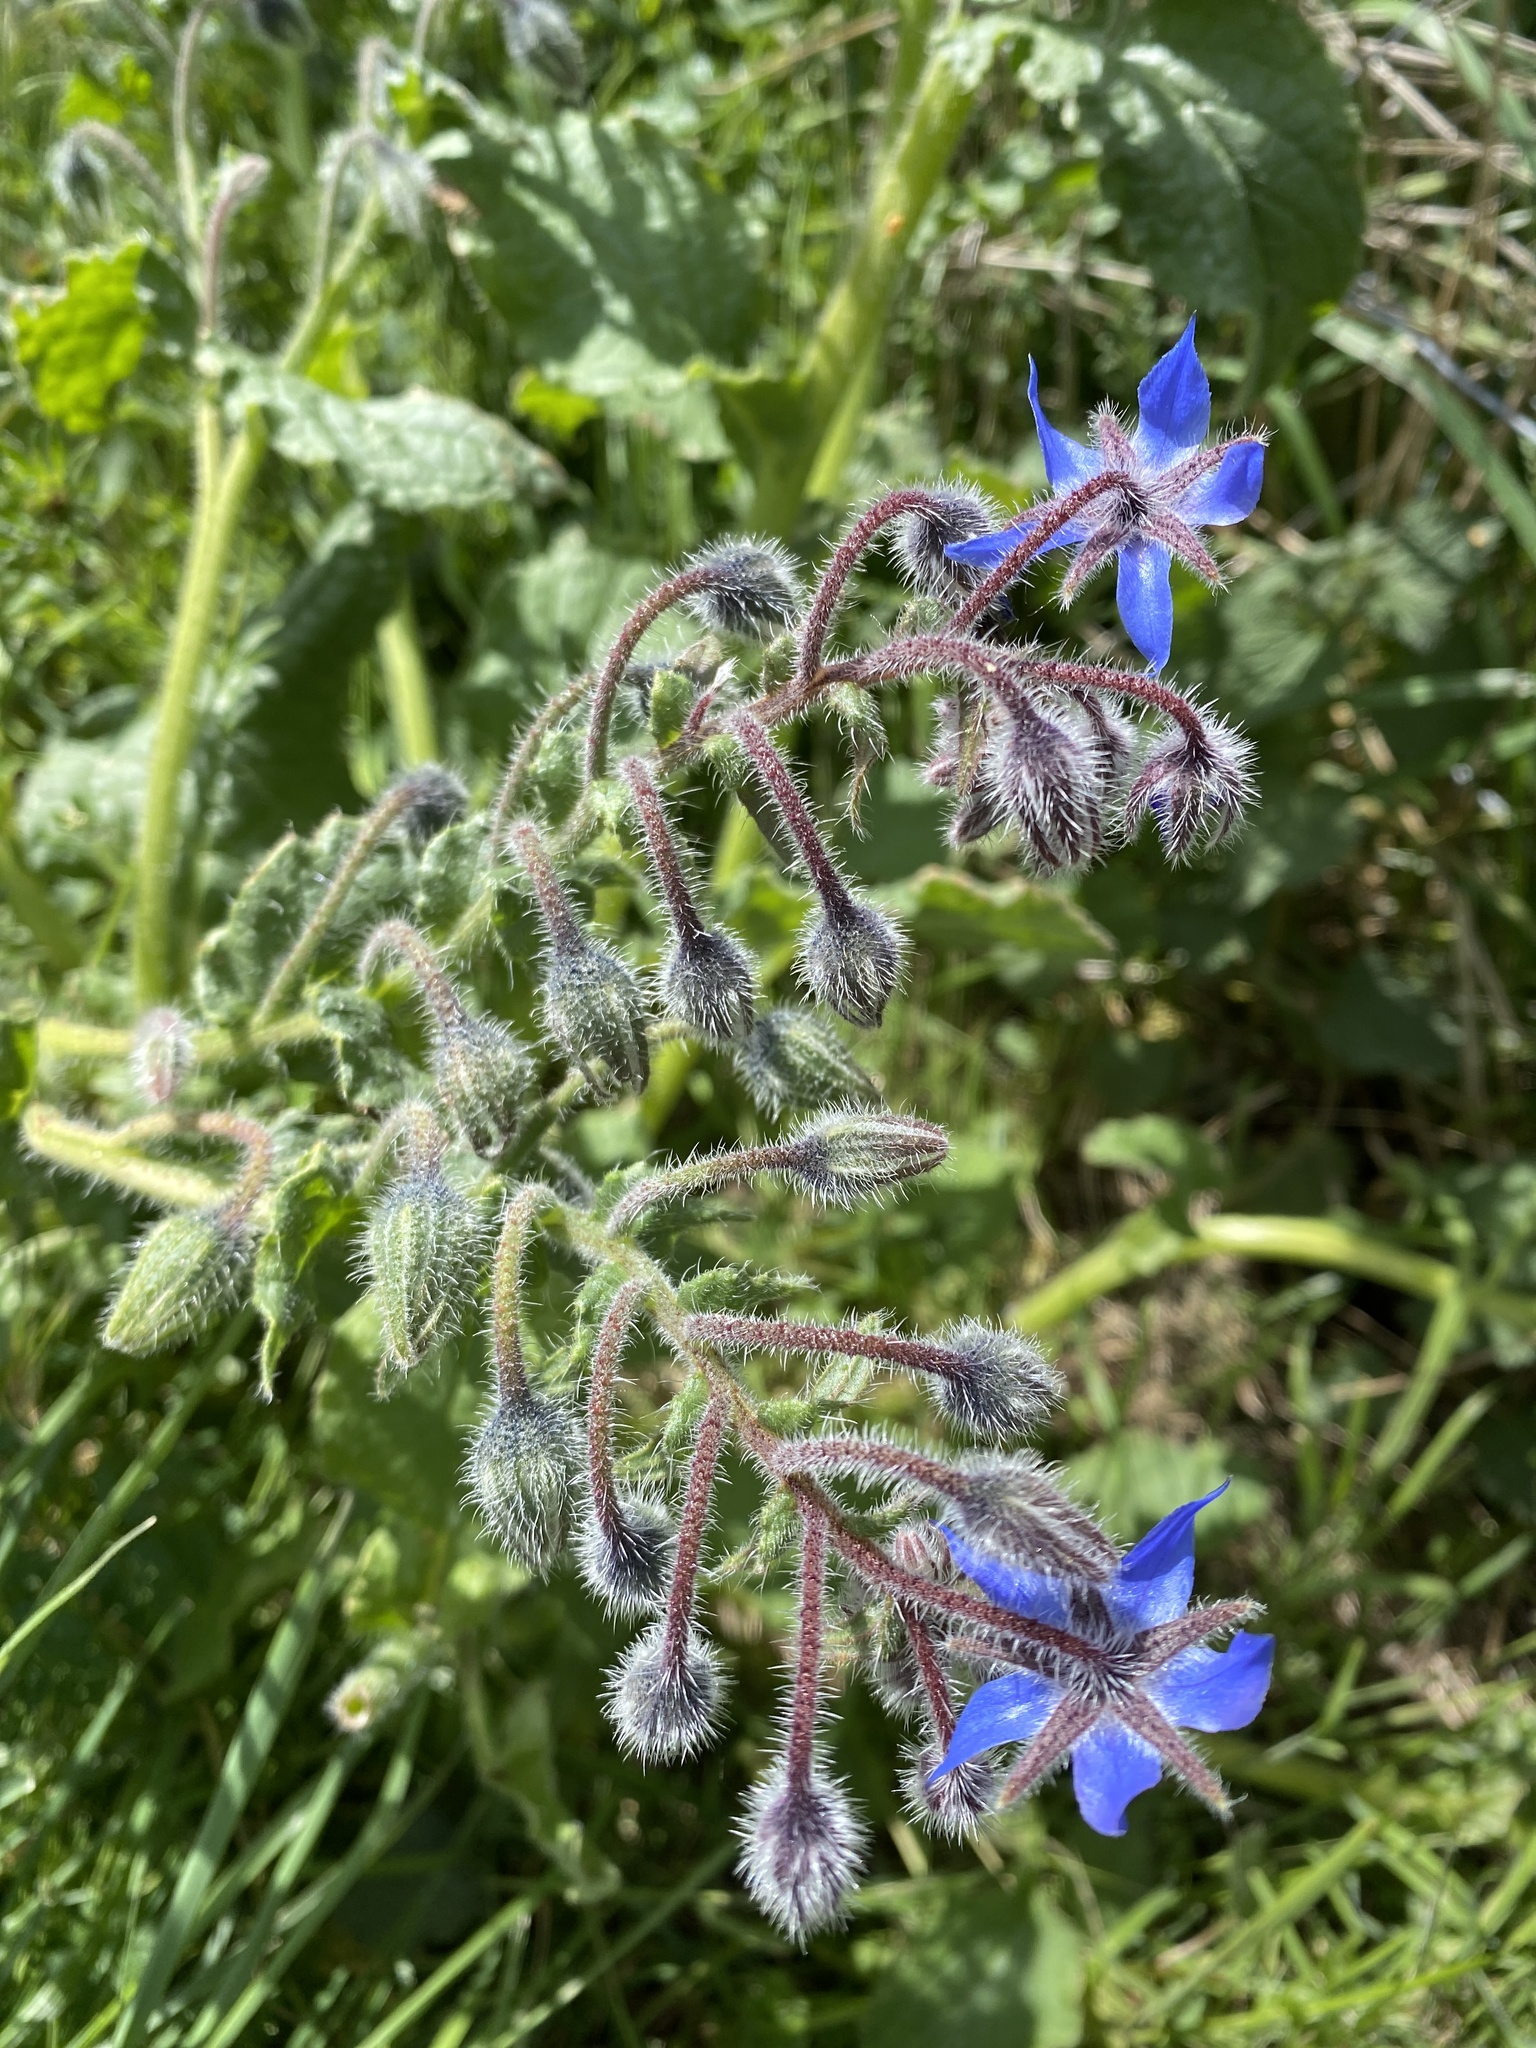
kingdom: Plantae
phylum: Tracheophyta
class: Magnoliopsida
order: Boraginales
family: Boraginaceae
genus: Borago
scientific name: Borago officinalis
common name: Borage
